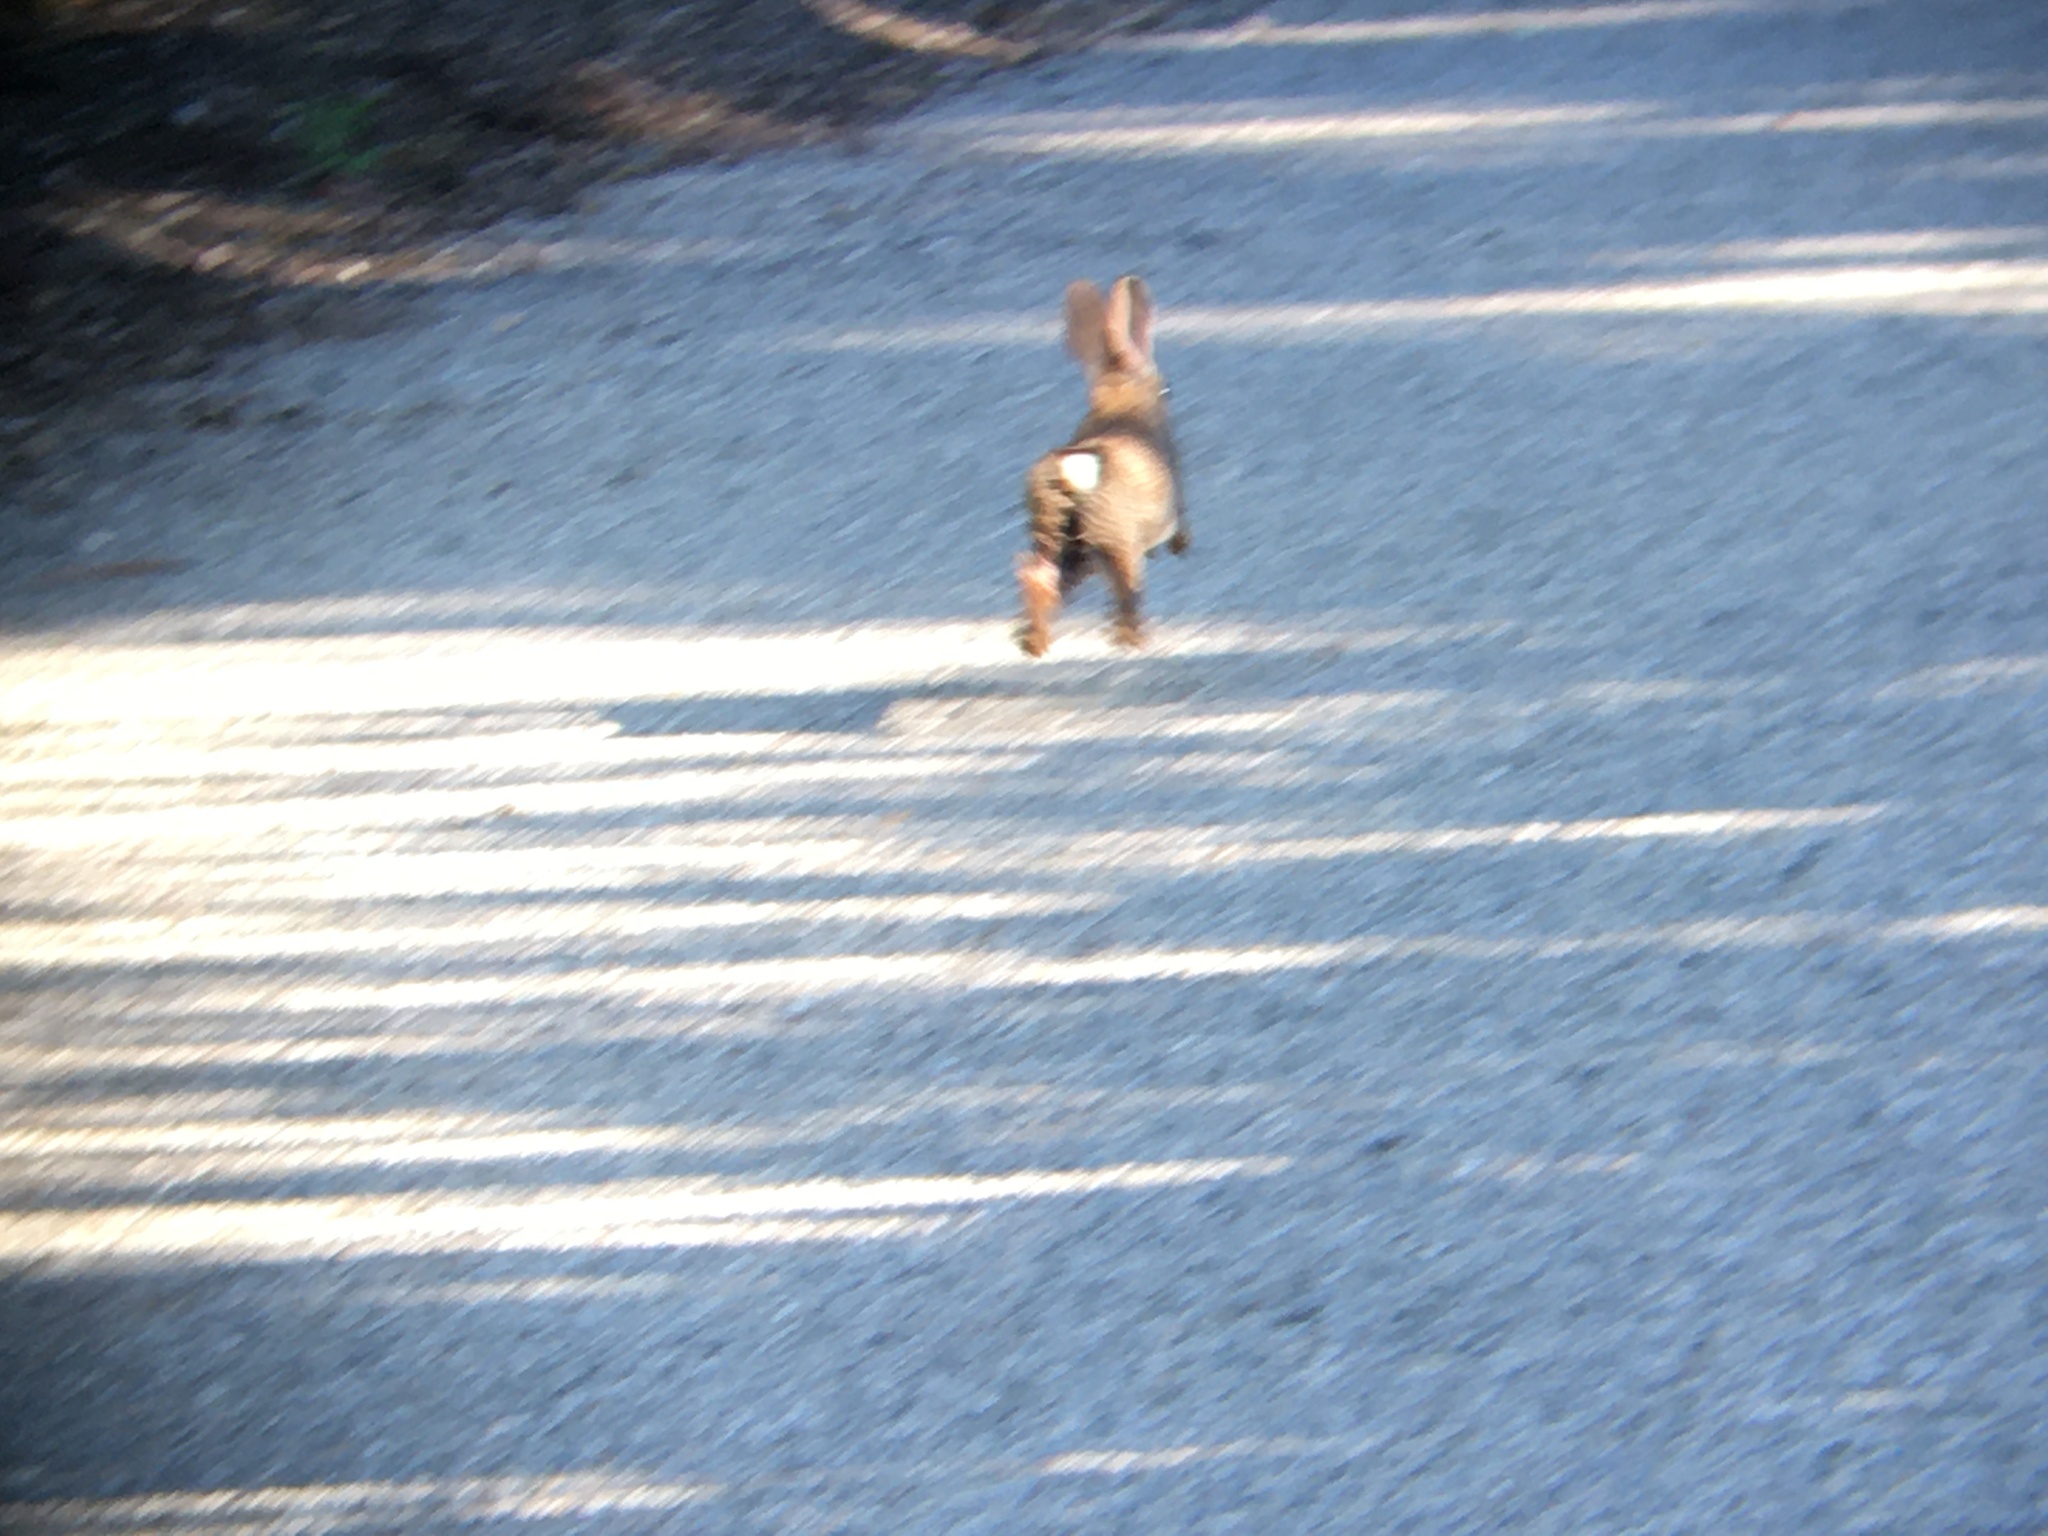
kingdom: Animalia
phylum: Chordata
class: Mammalia
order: Lagomorpha
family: Leporidae
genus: Sylvilagus
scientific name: Sylvilagus bachmani
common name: Brush rabbit
